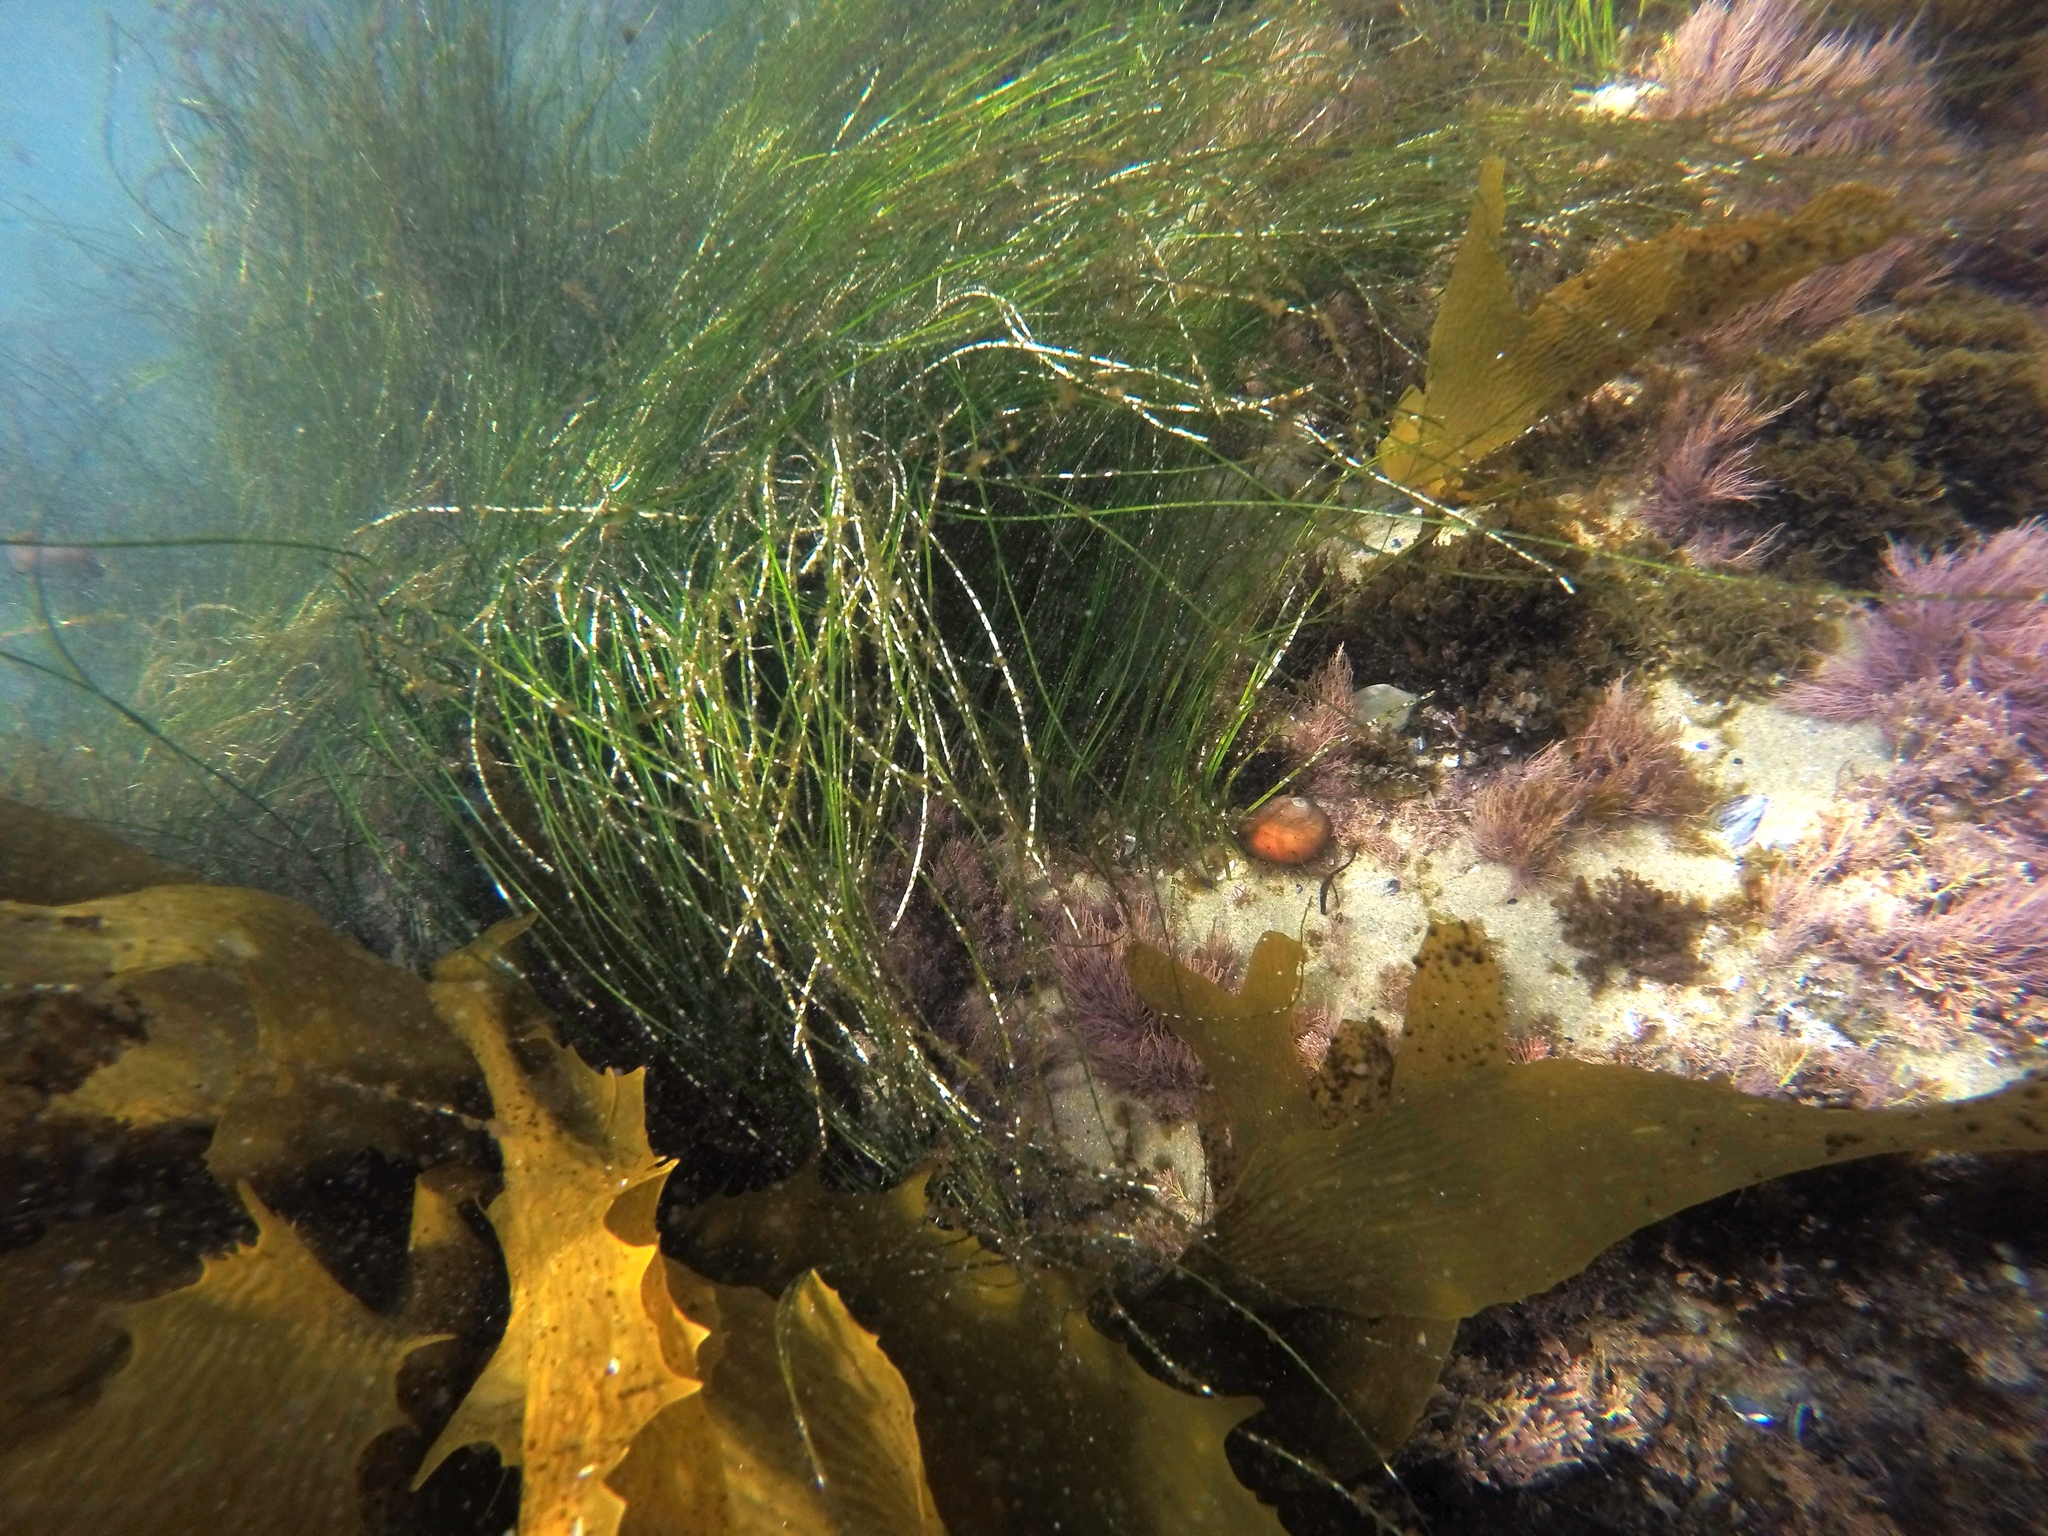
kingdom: Animalia
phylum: Mollusca
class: Gastropoda
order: Trochida
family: Tegulidae
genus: Norrisia
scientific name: Norrisia norrisii
